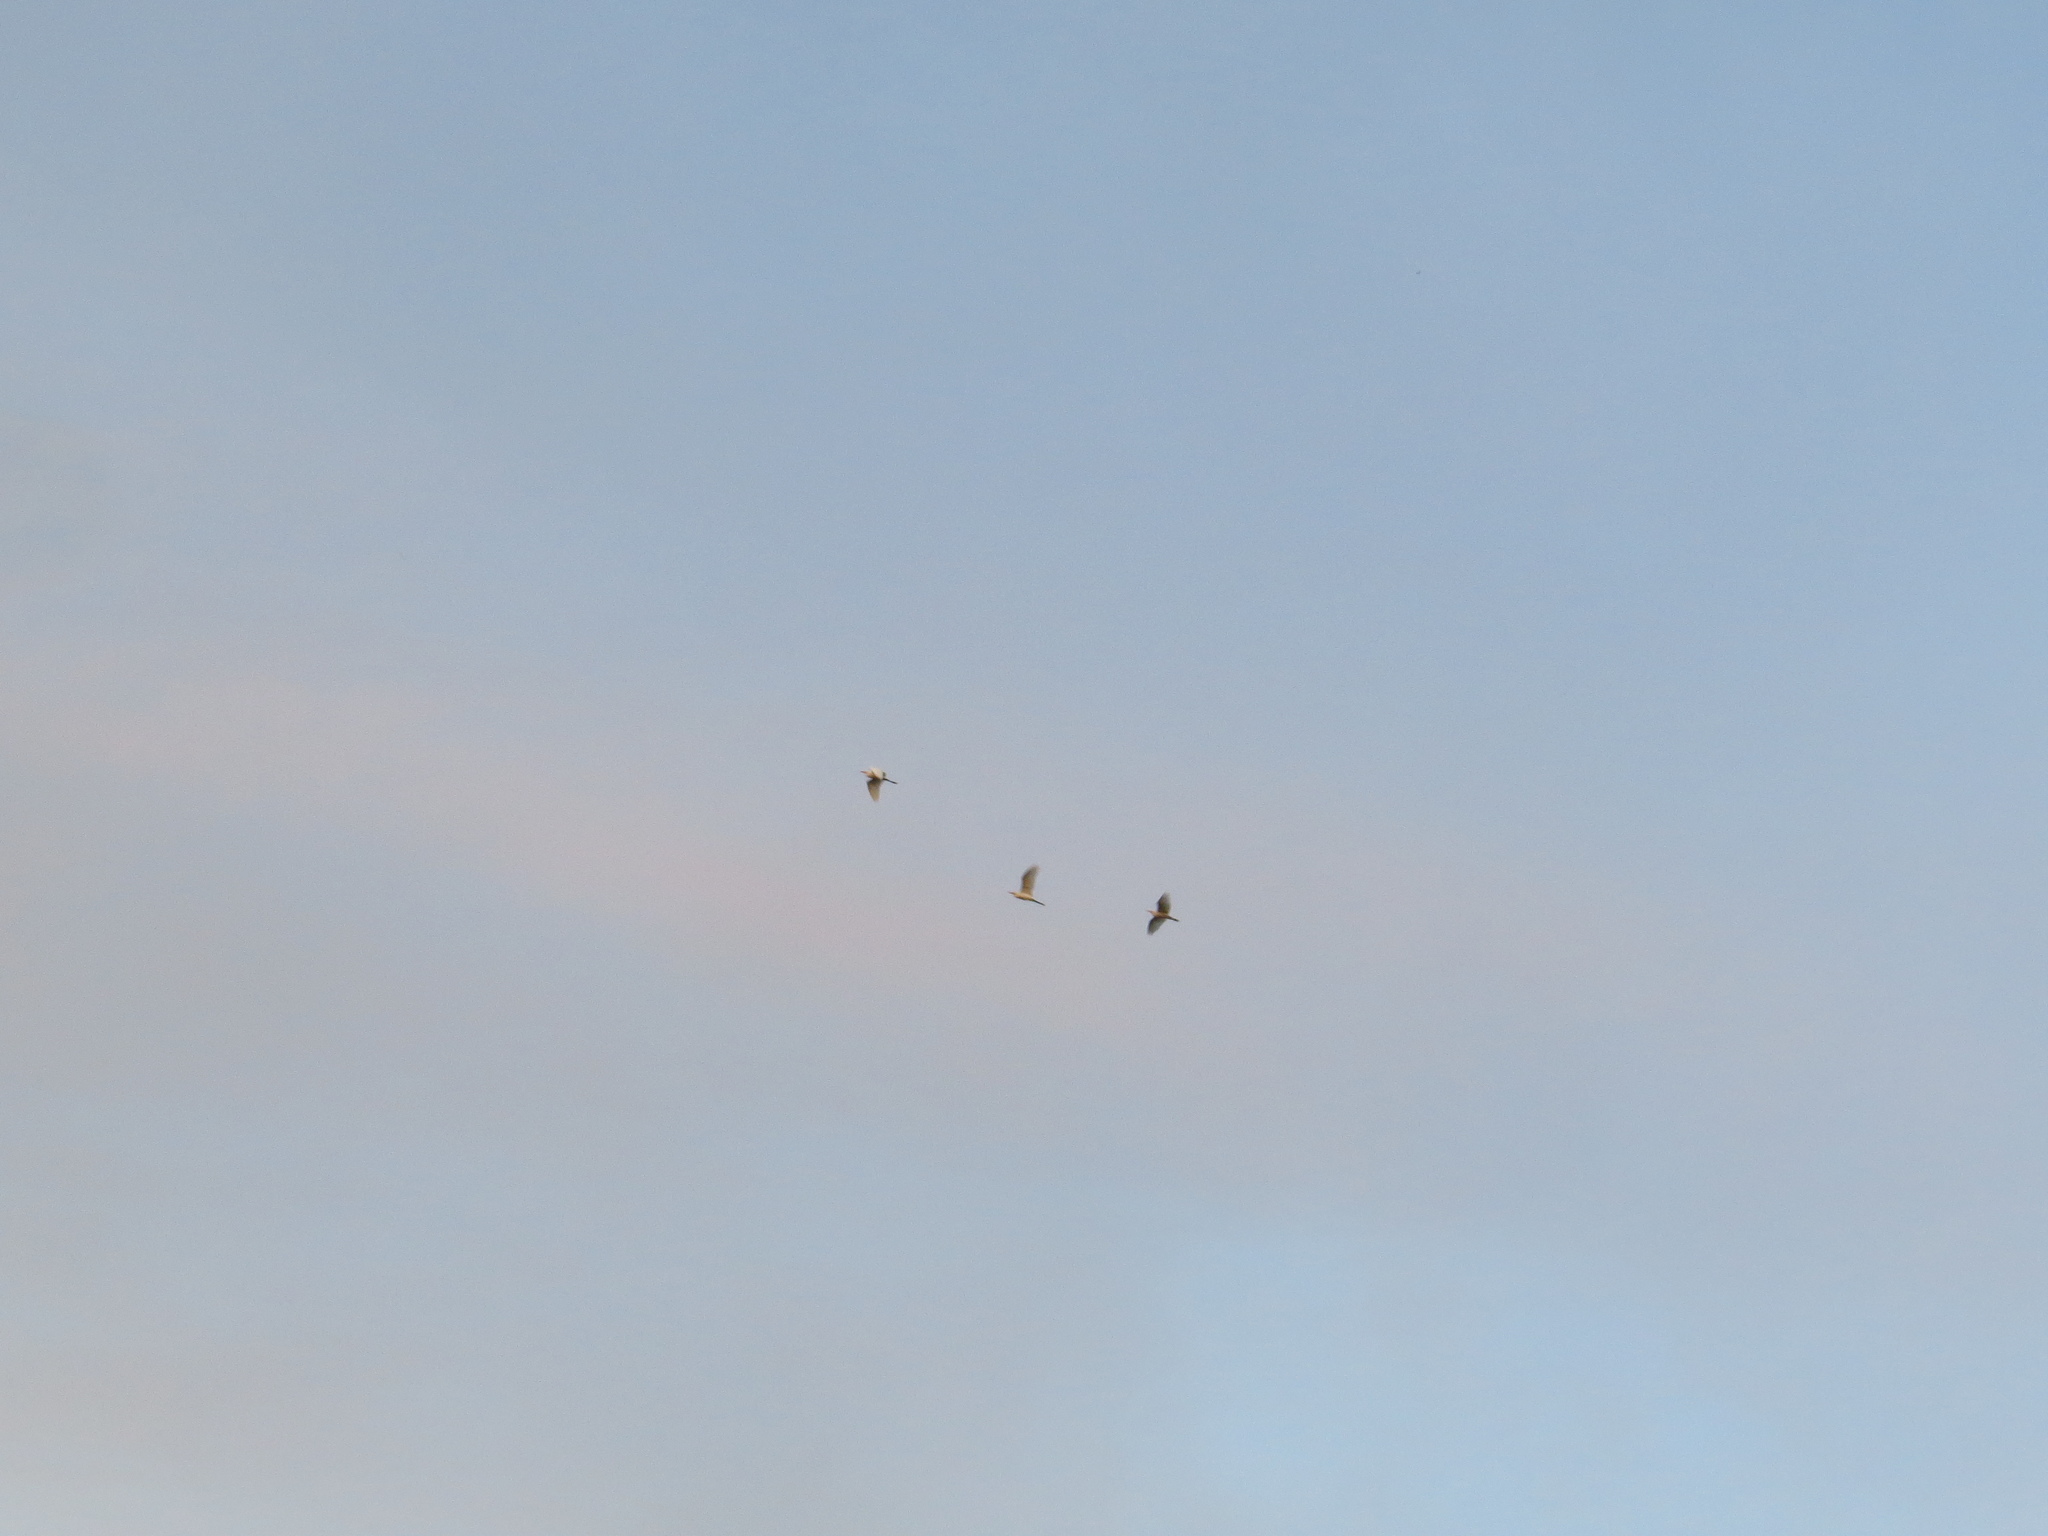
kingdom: Animalia
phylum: Chordata
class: Aves
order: Pelecaniformes
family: Ardeidae
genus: Bubulcus
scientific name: Bubulcus ibis
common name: Cattle egret
